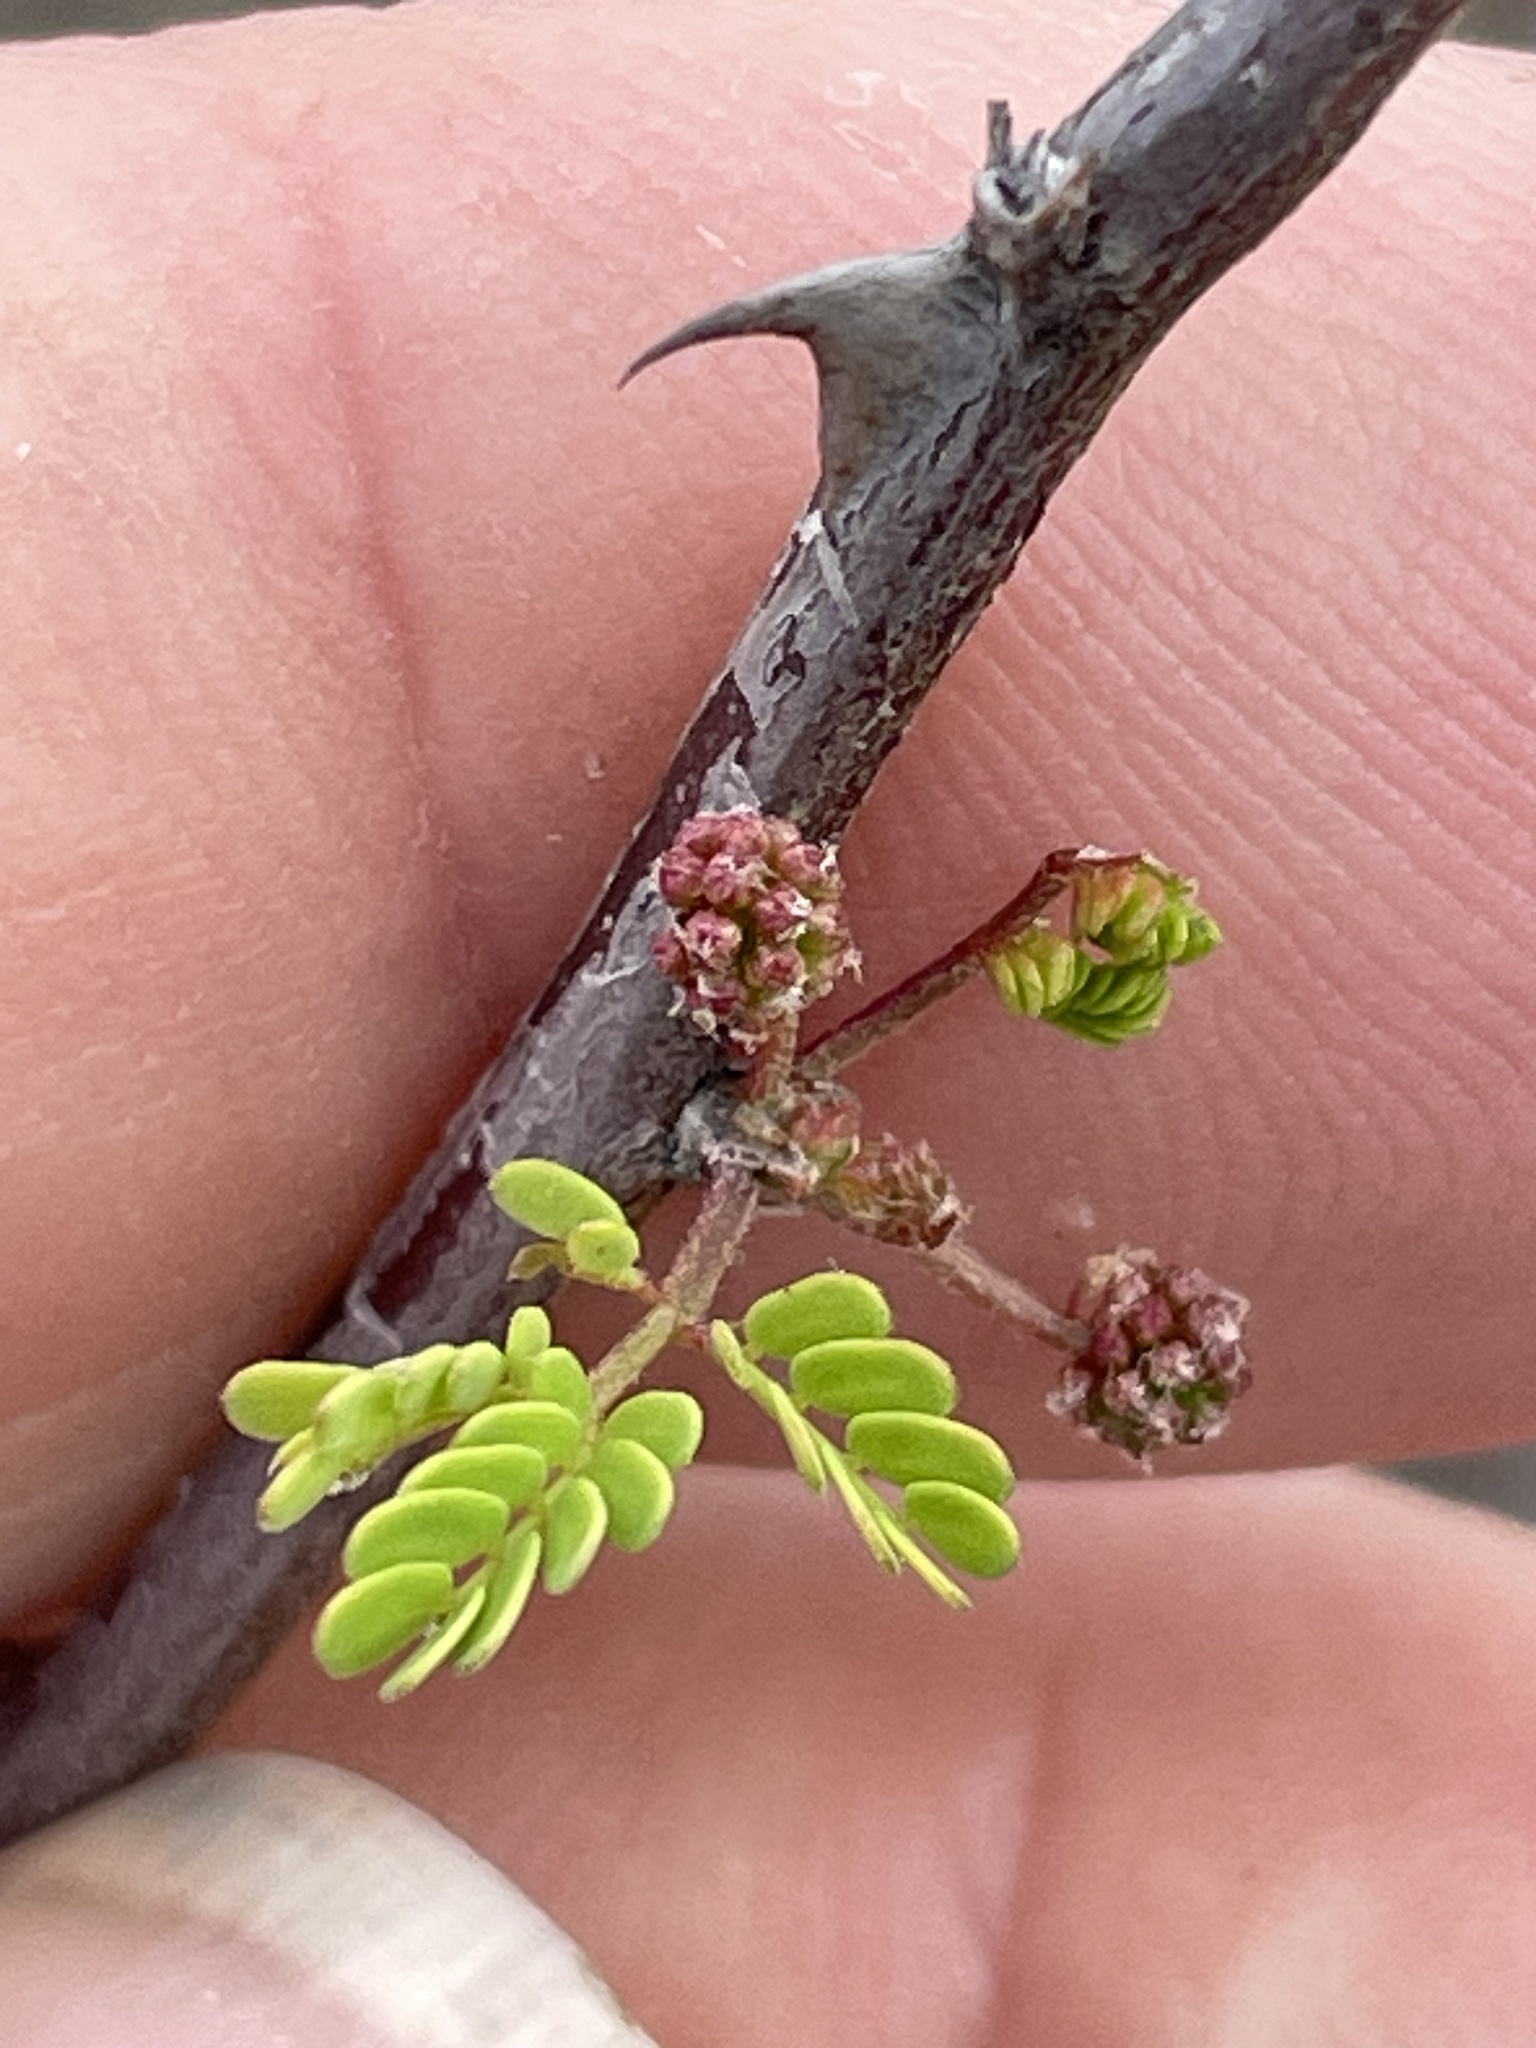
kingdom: Plantae
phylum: Tracheophyta
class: Magnoliopsida
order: Fabales
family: Fabaceae
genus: Mimosa
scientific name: Mimosa texana
